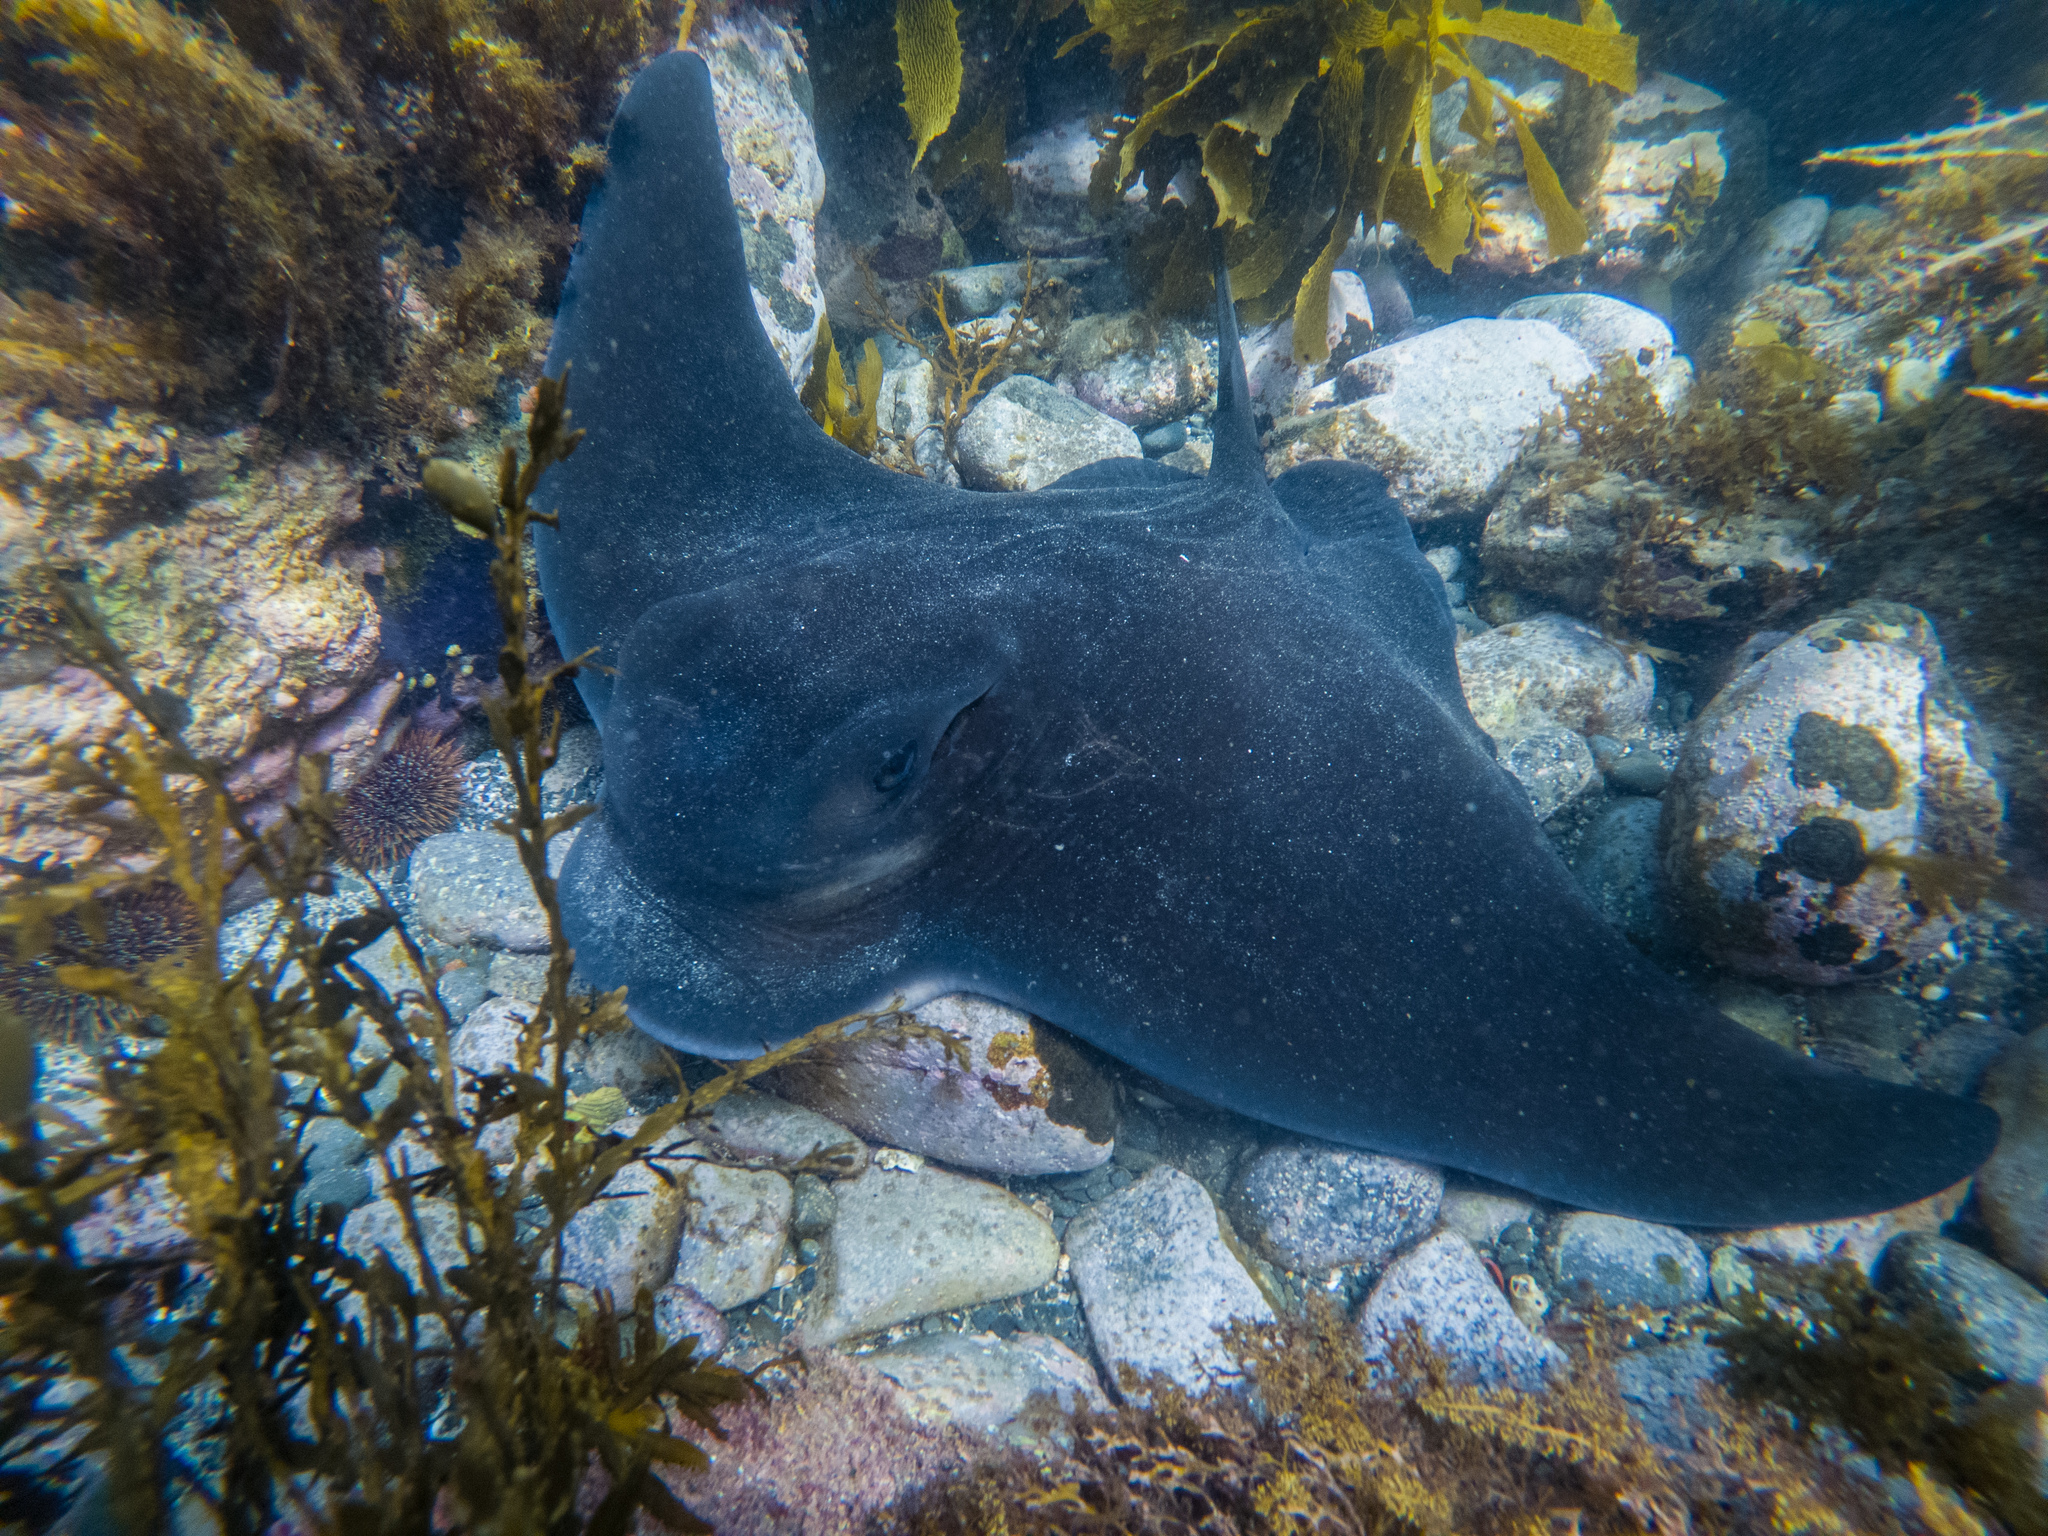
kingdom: Animalia
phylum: Chordata
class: Elasmobranchii
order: Myliobatiformes
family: Myliobatidae
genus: Myliobatis
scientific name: Myliobatis tenuicaudatus
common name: Eagle ray
